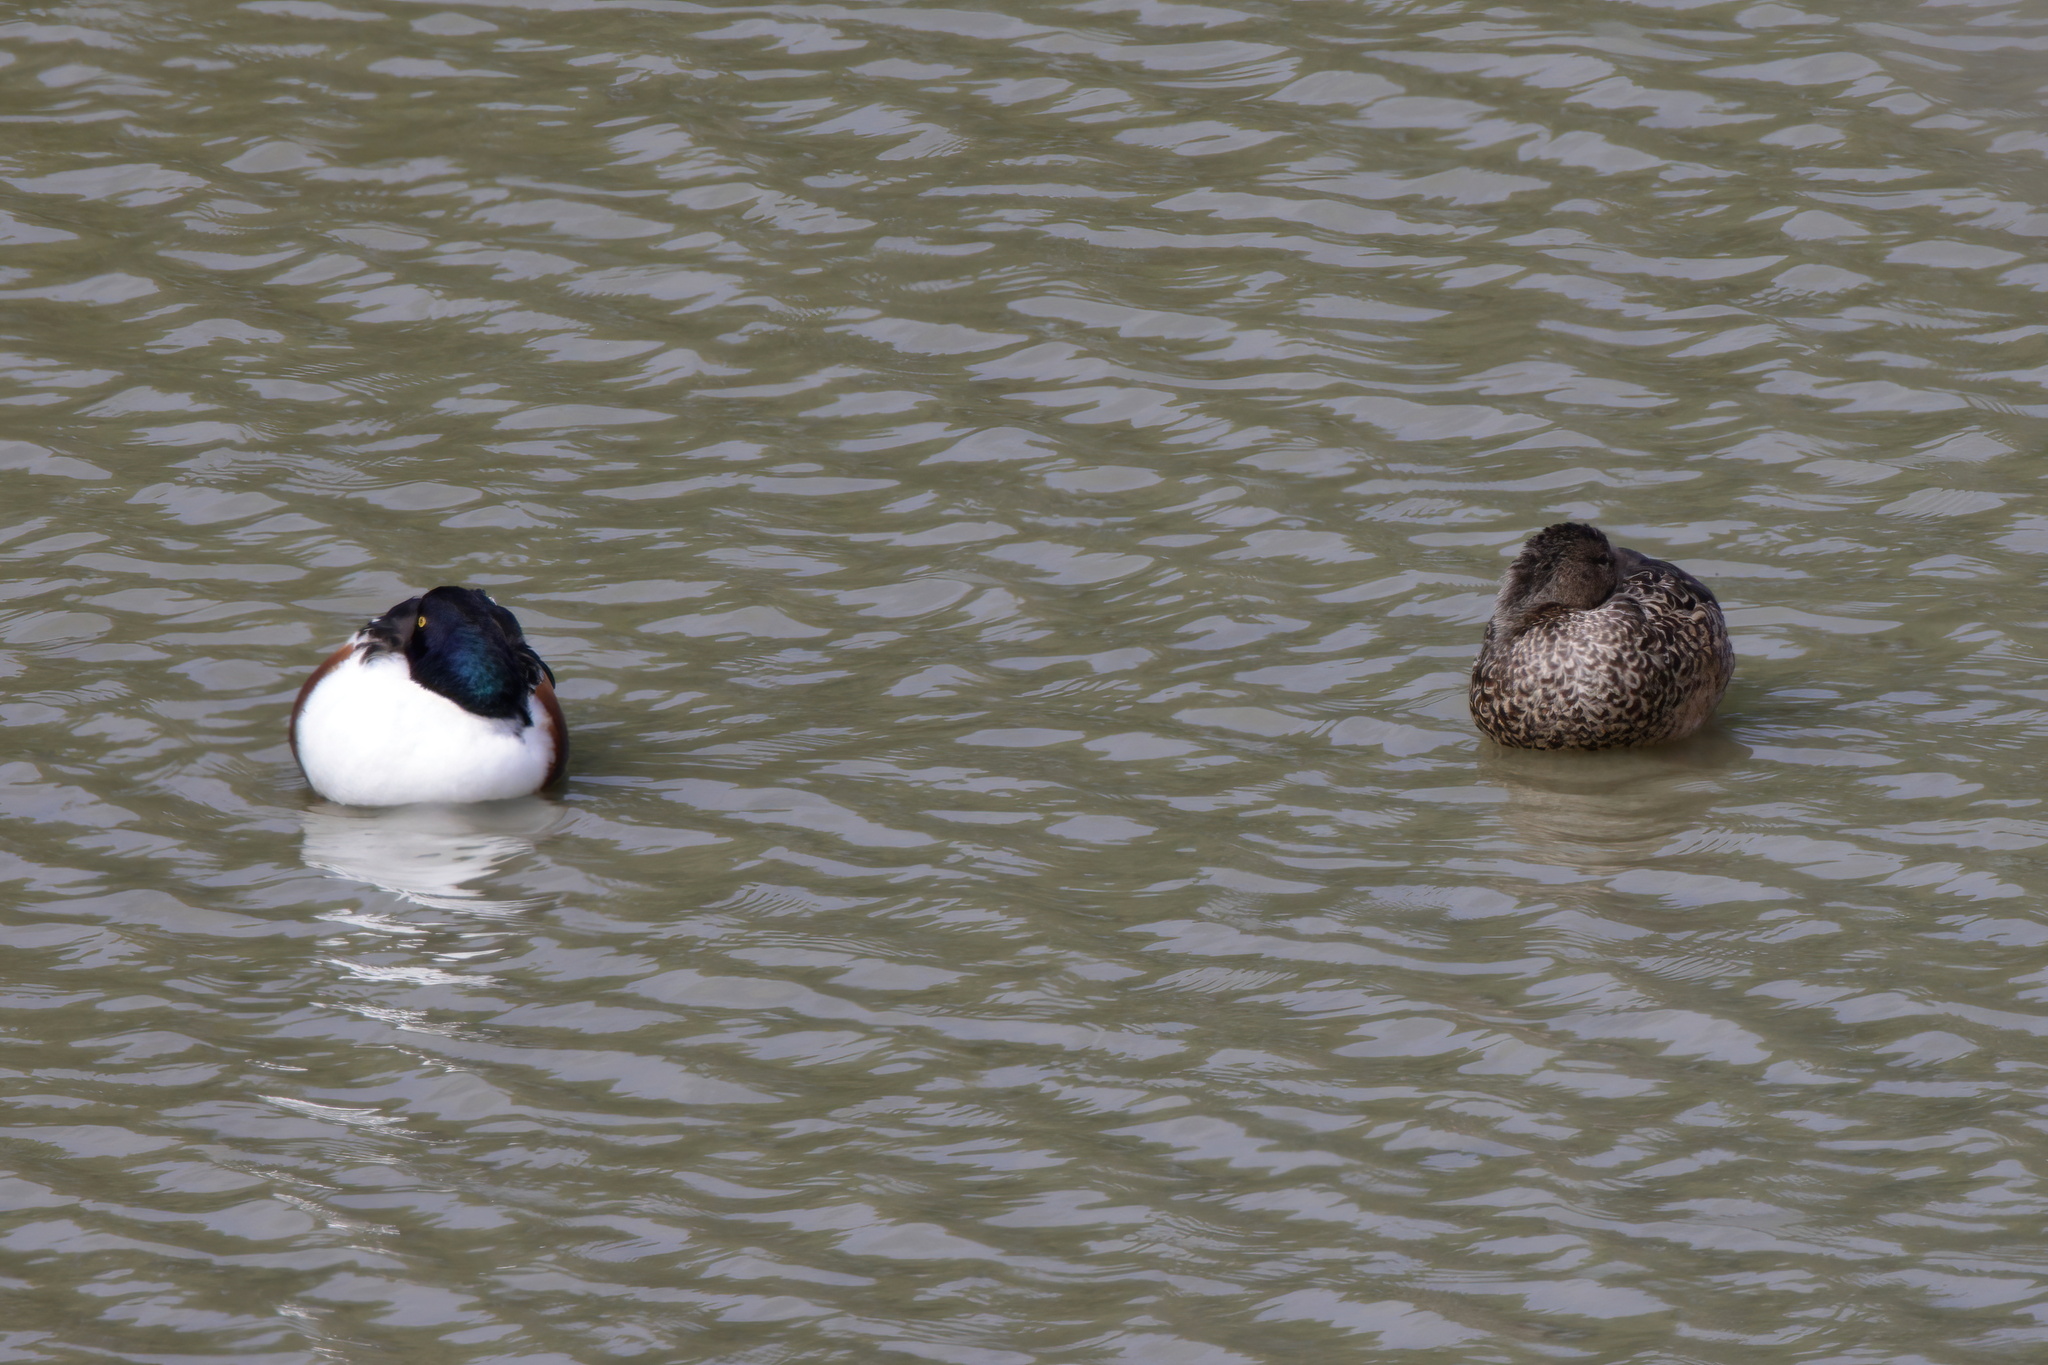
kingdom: Animalia
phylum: Chordata
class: Aves
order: Anseriformes
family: Anatidae
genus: Spatula
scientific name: Spatula clypeata
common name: Northern shoveler
